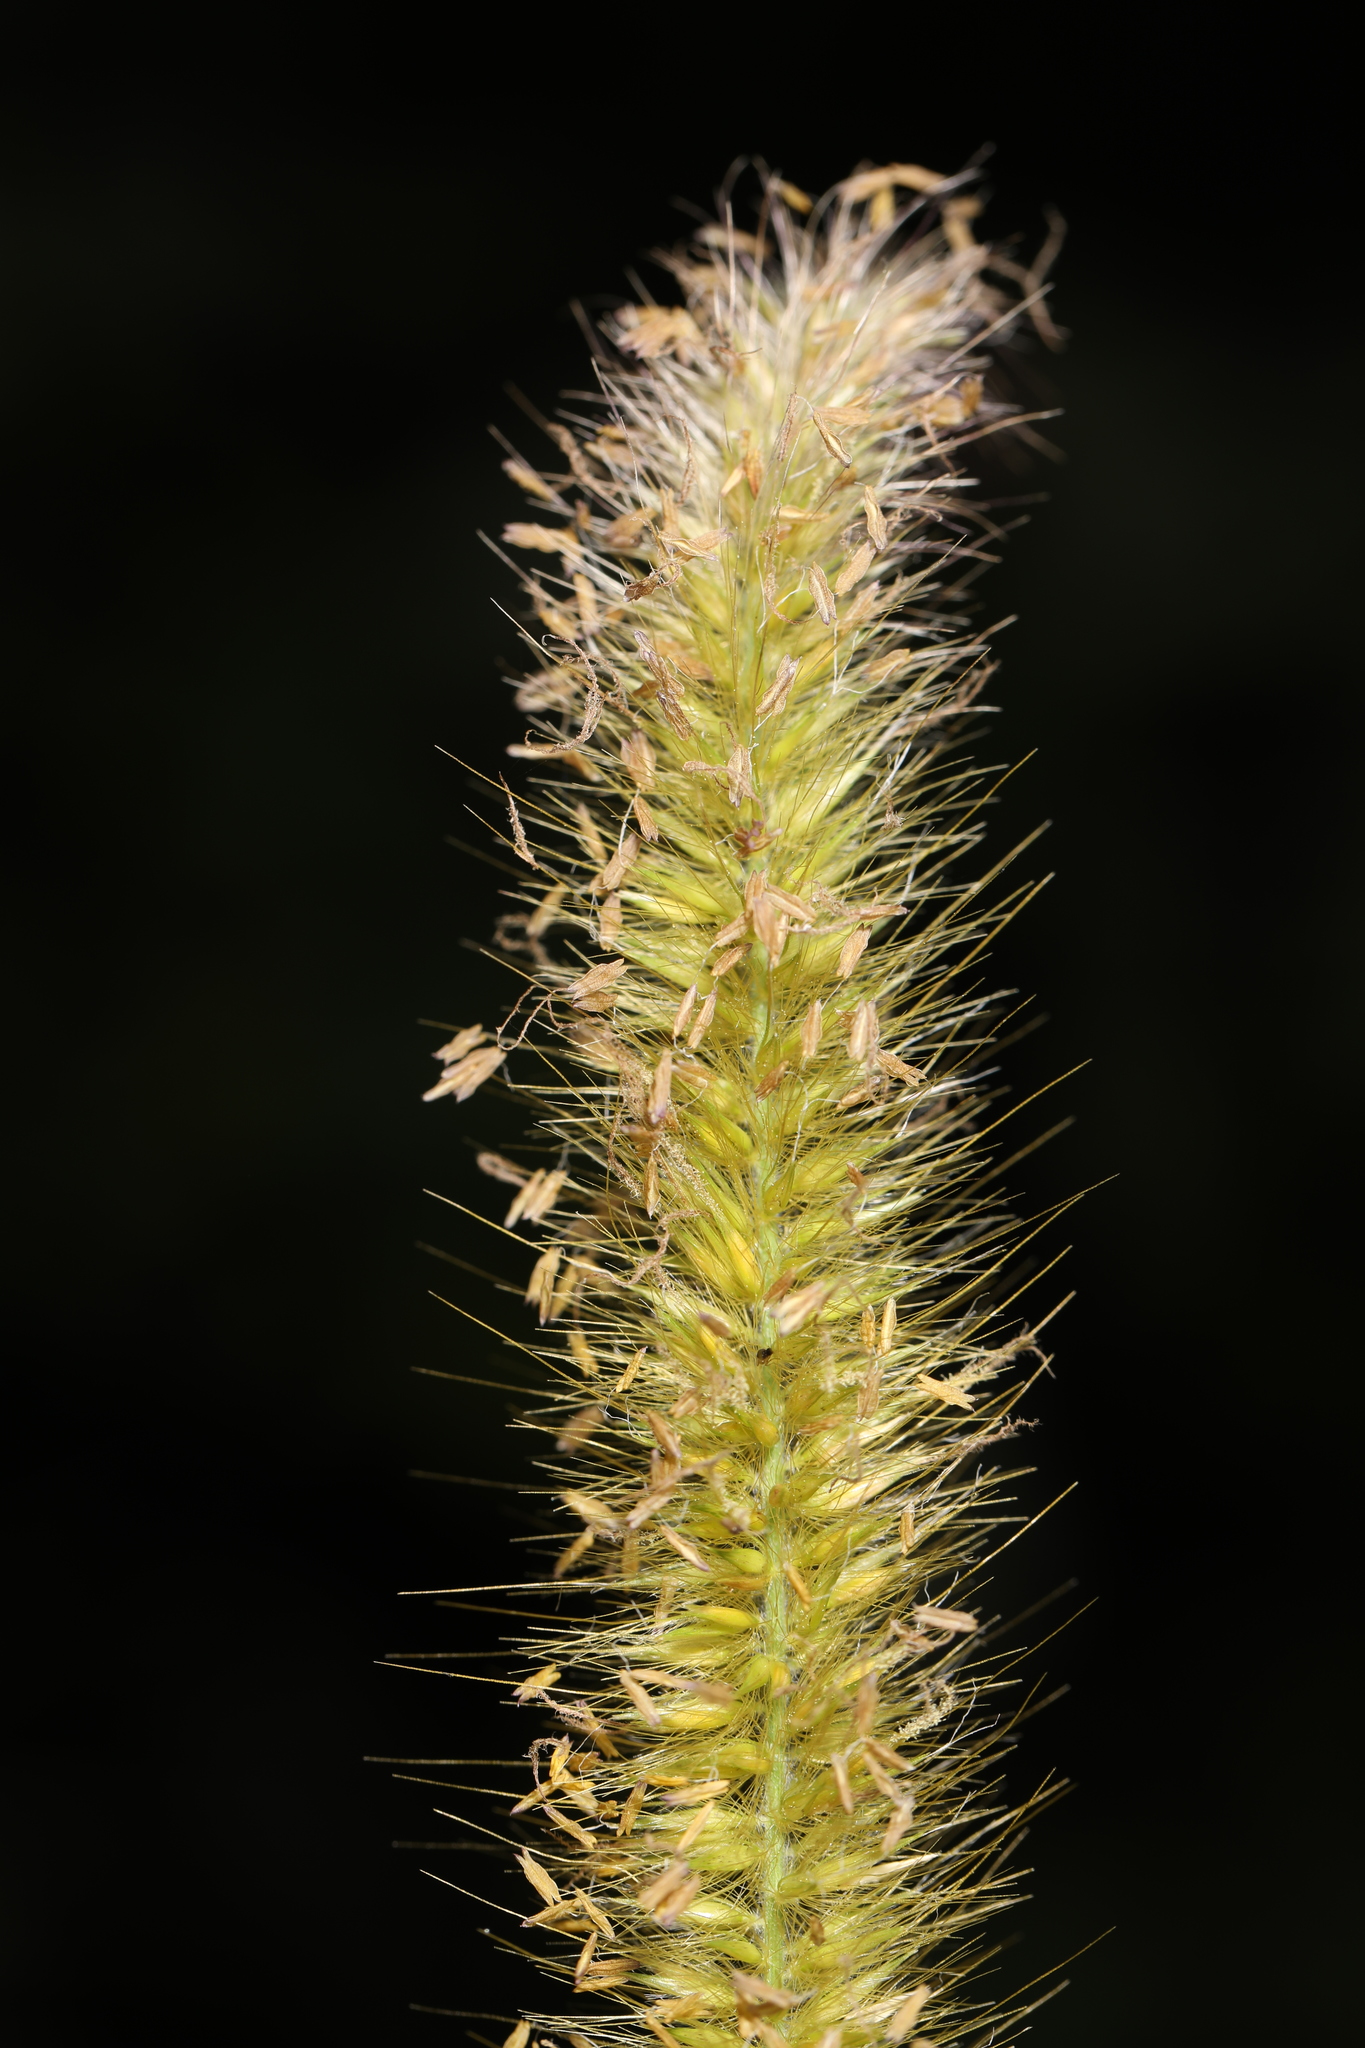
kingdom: Plantae
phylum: Tracheophyta
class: Liliopsida
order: Poales
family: Poaceae
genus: Cenchrus
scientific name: Cenchrus purpureus
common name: Elephant grass
